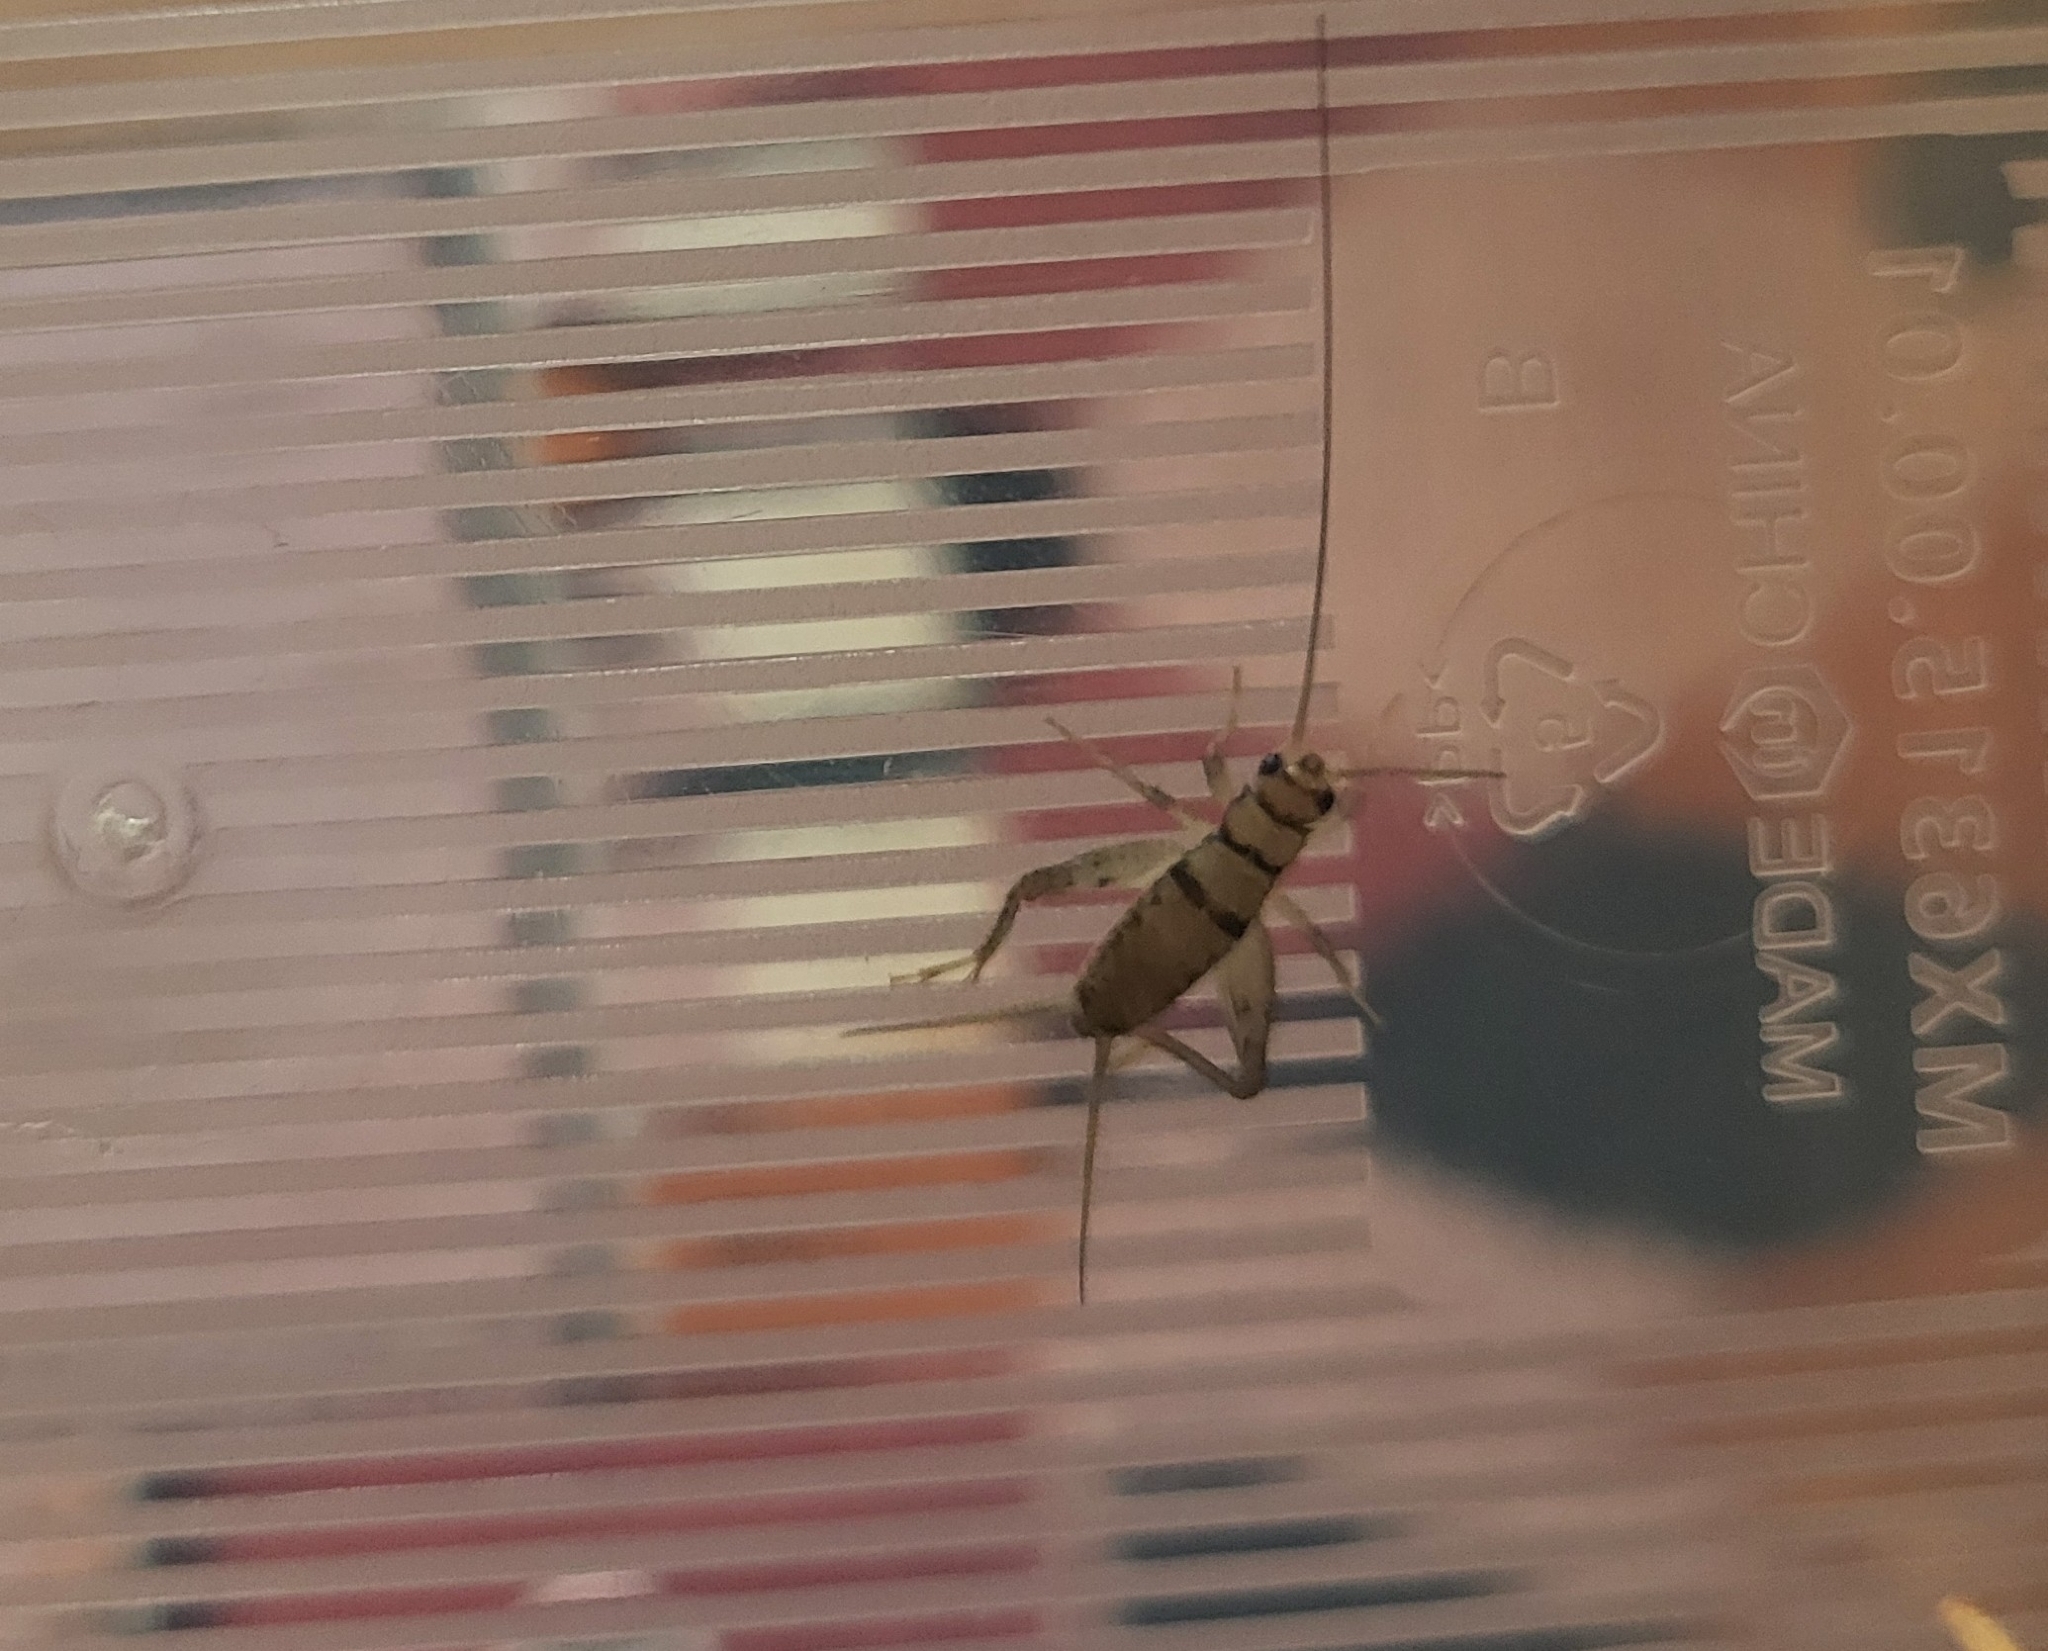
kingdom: Animalia
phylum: Arthropoda
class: Insecta
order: Orthoptera
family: Gryllidae
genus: Gryllodes
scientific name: Gryllodes sigillatus
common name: Tropical house cricket
